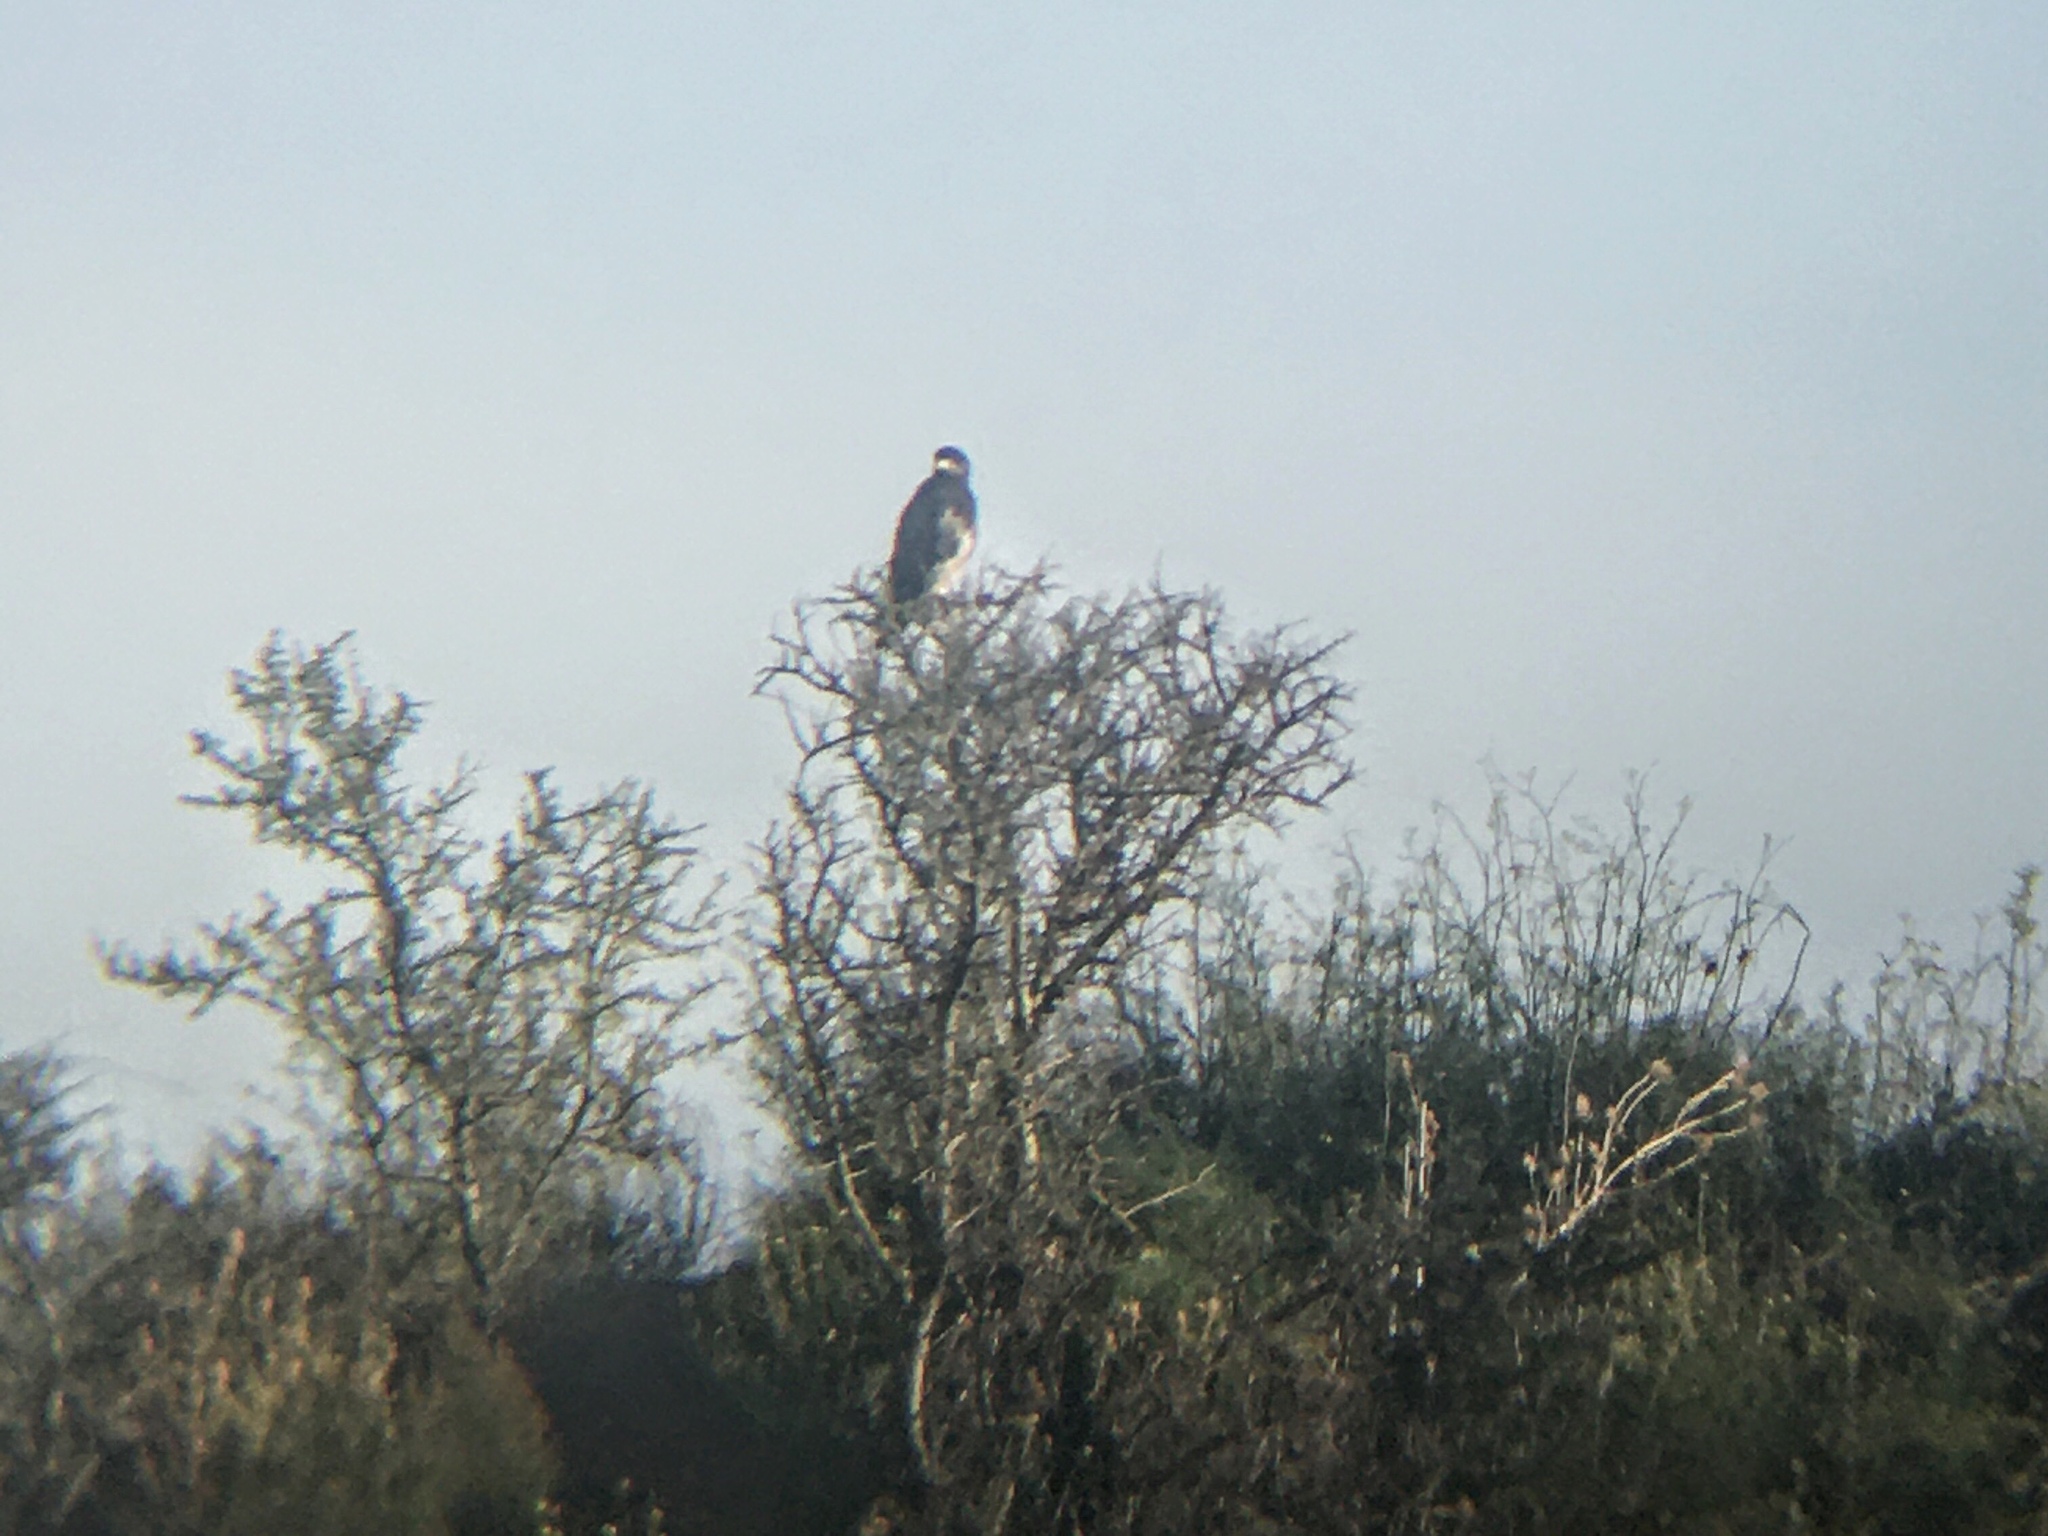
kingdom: Animalia
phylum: Chordata
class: Aves
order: Accipitriformes
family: Accipitridae
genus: Geranoaetus
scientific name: Geranoaetus melanoleucus
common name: Black-chested buzzard-eagle
